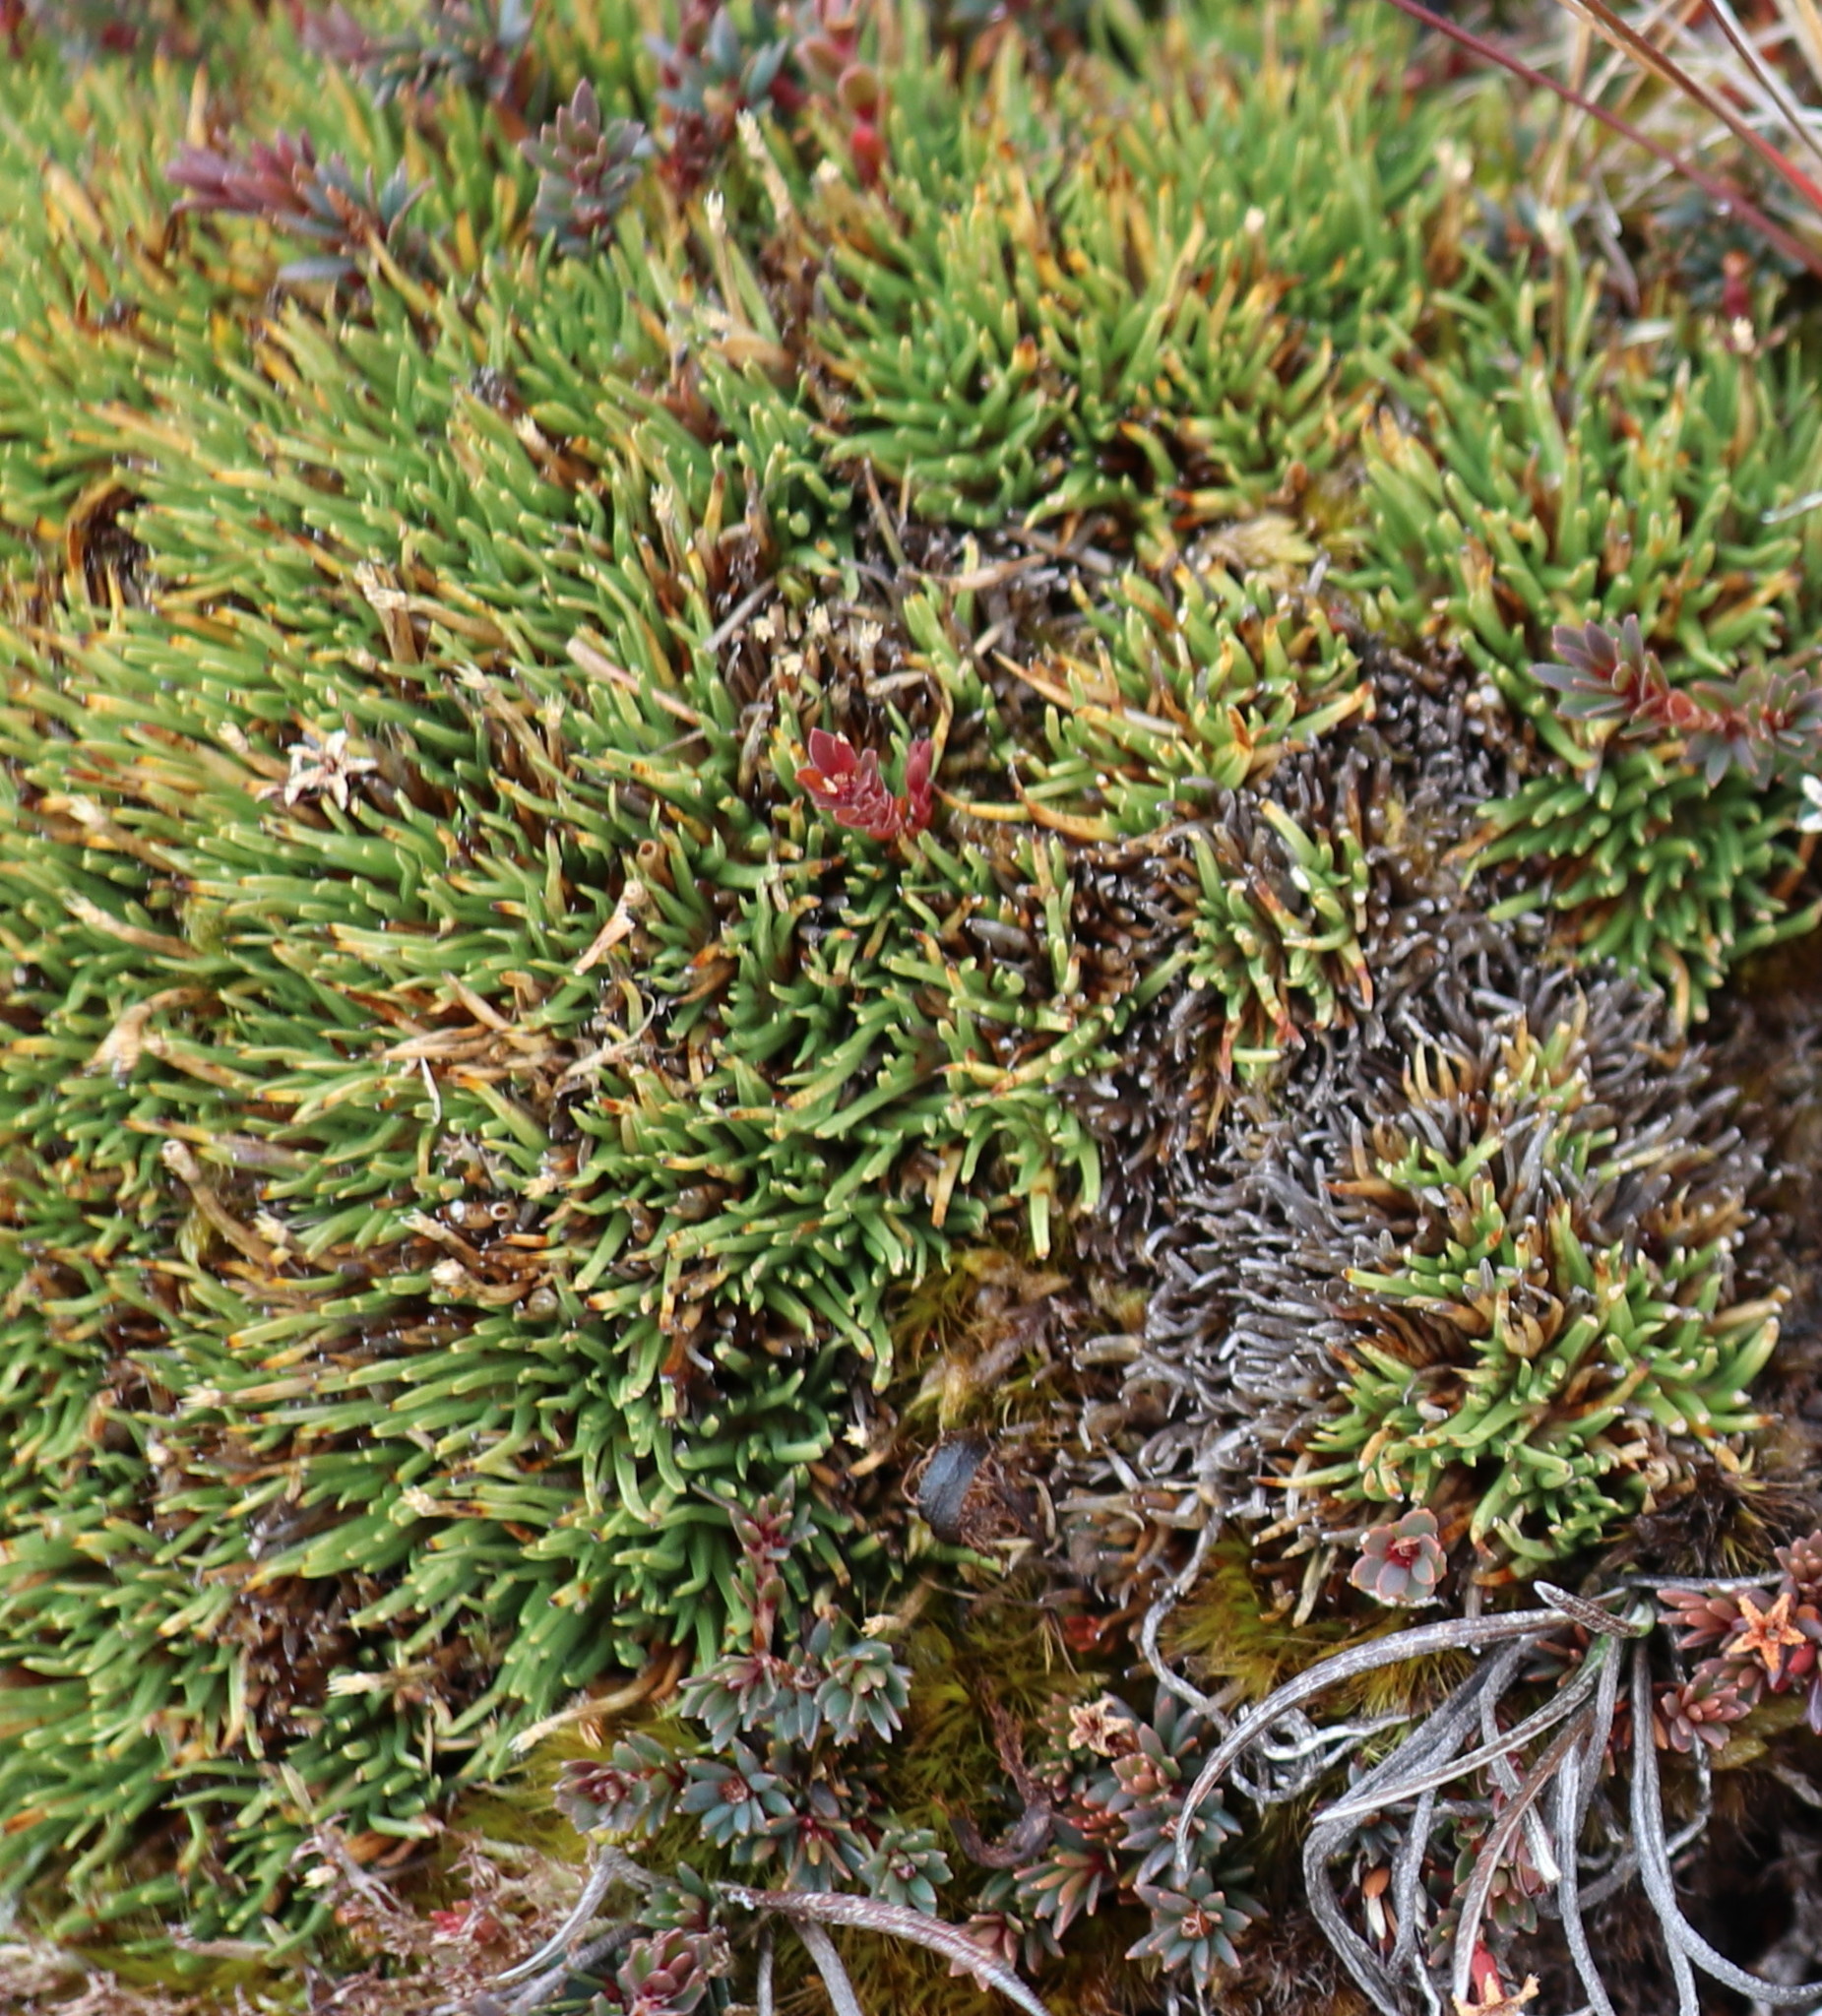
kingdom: Plantae
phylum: Tracheophyta
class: Liliopsida
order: Poales
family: Cyperaceae
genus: Oreobolus
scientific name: Oreobolus pectinatus
